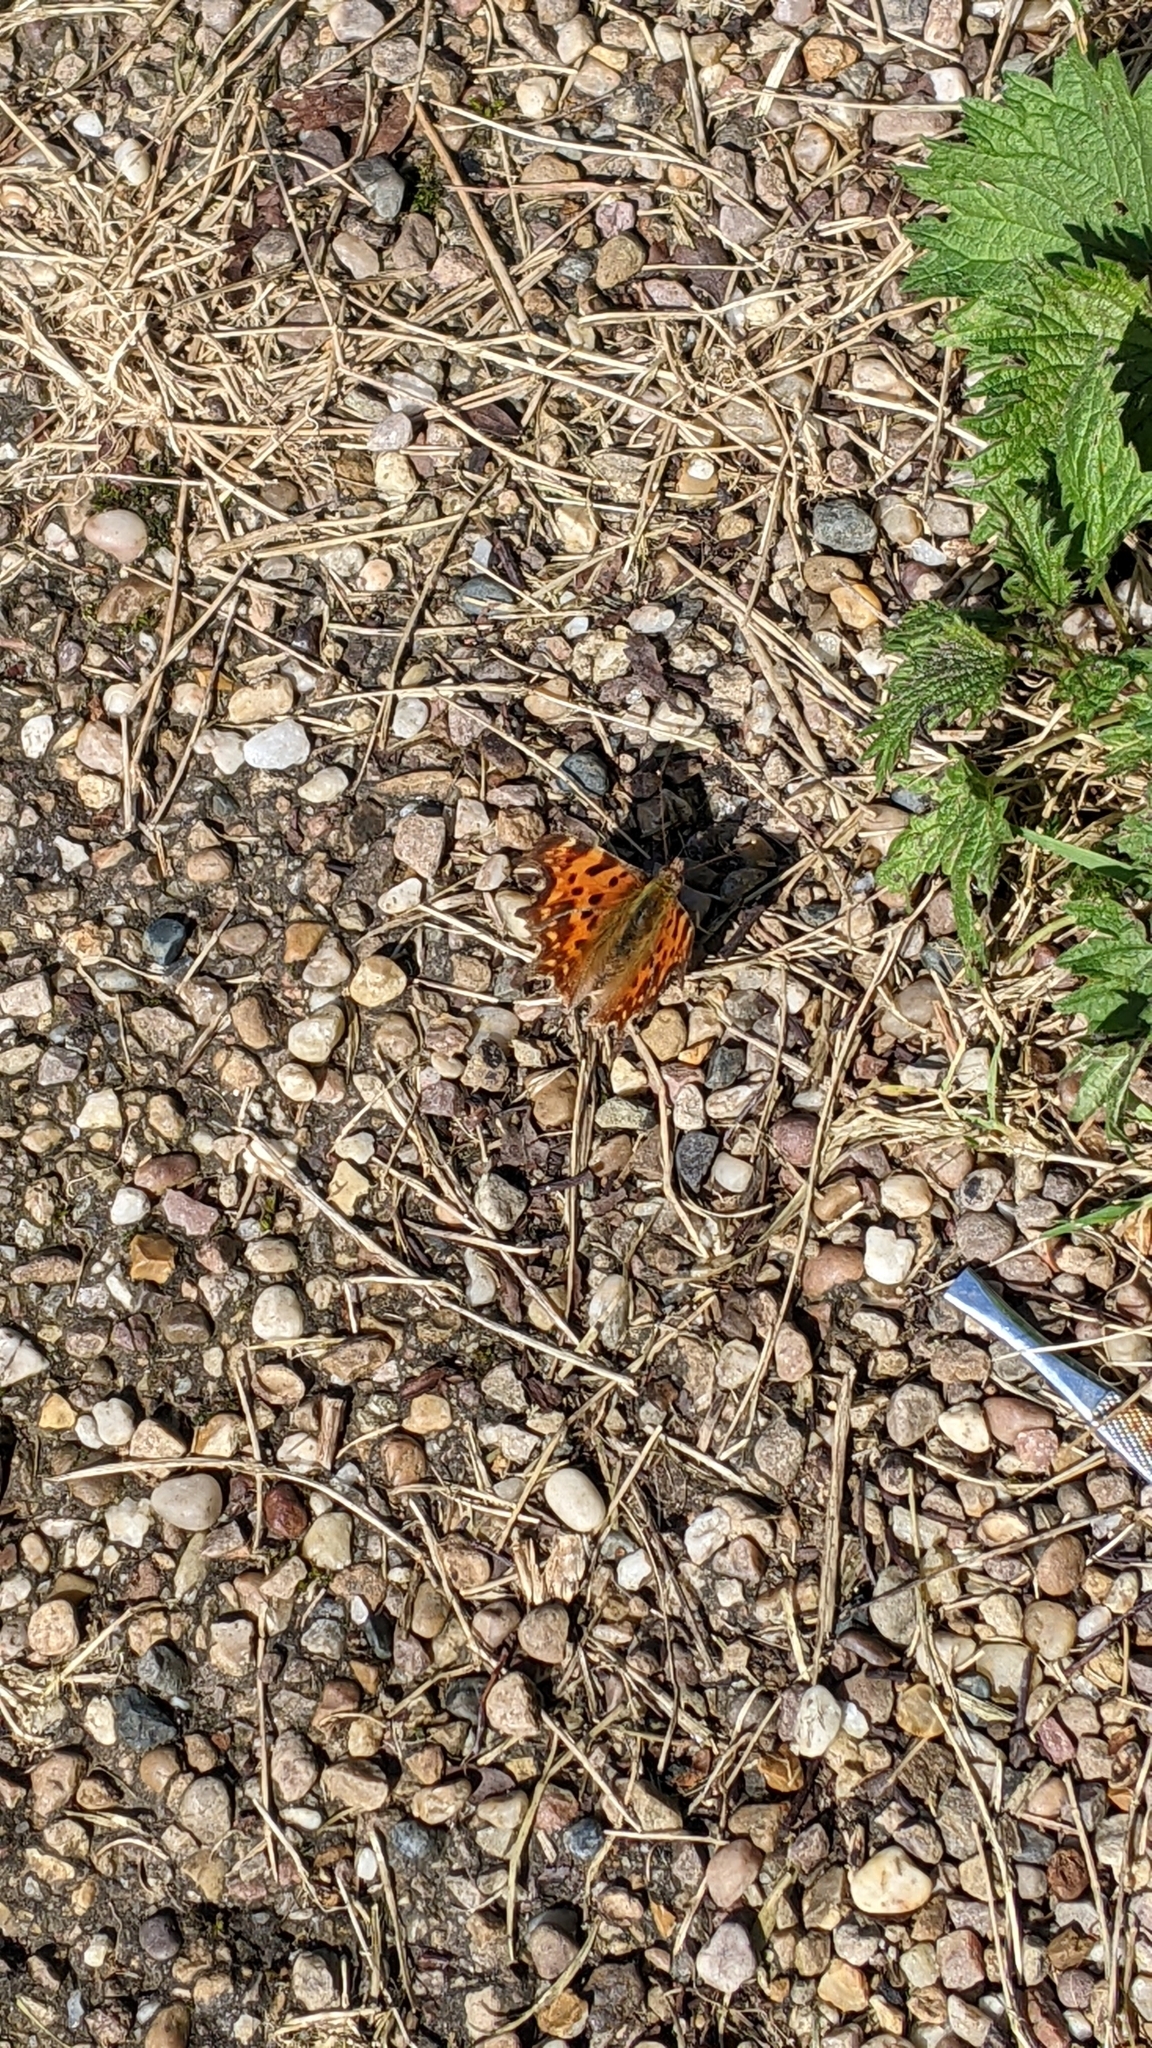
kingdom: Animalia
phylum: Arthropoda
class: Insecta
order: Lepidoptera
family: Nymphalidae
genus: Polygonia
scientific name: Polygonia c-album
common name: Comma
